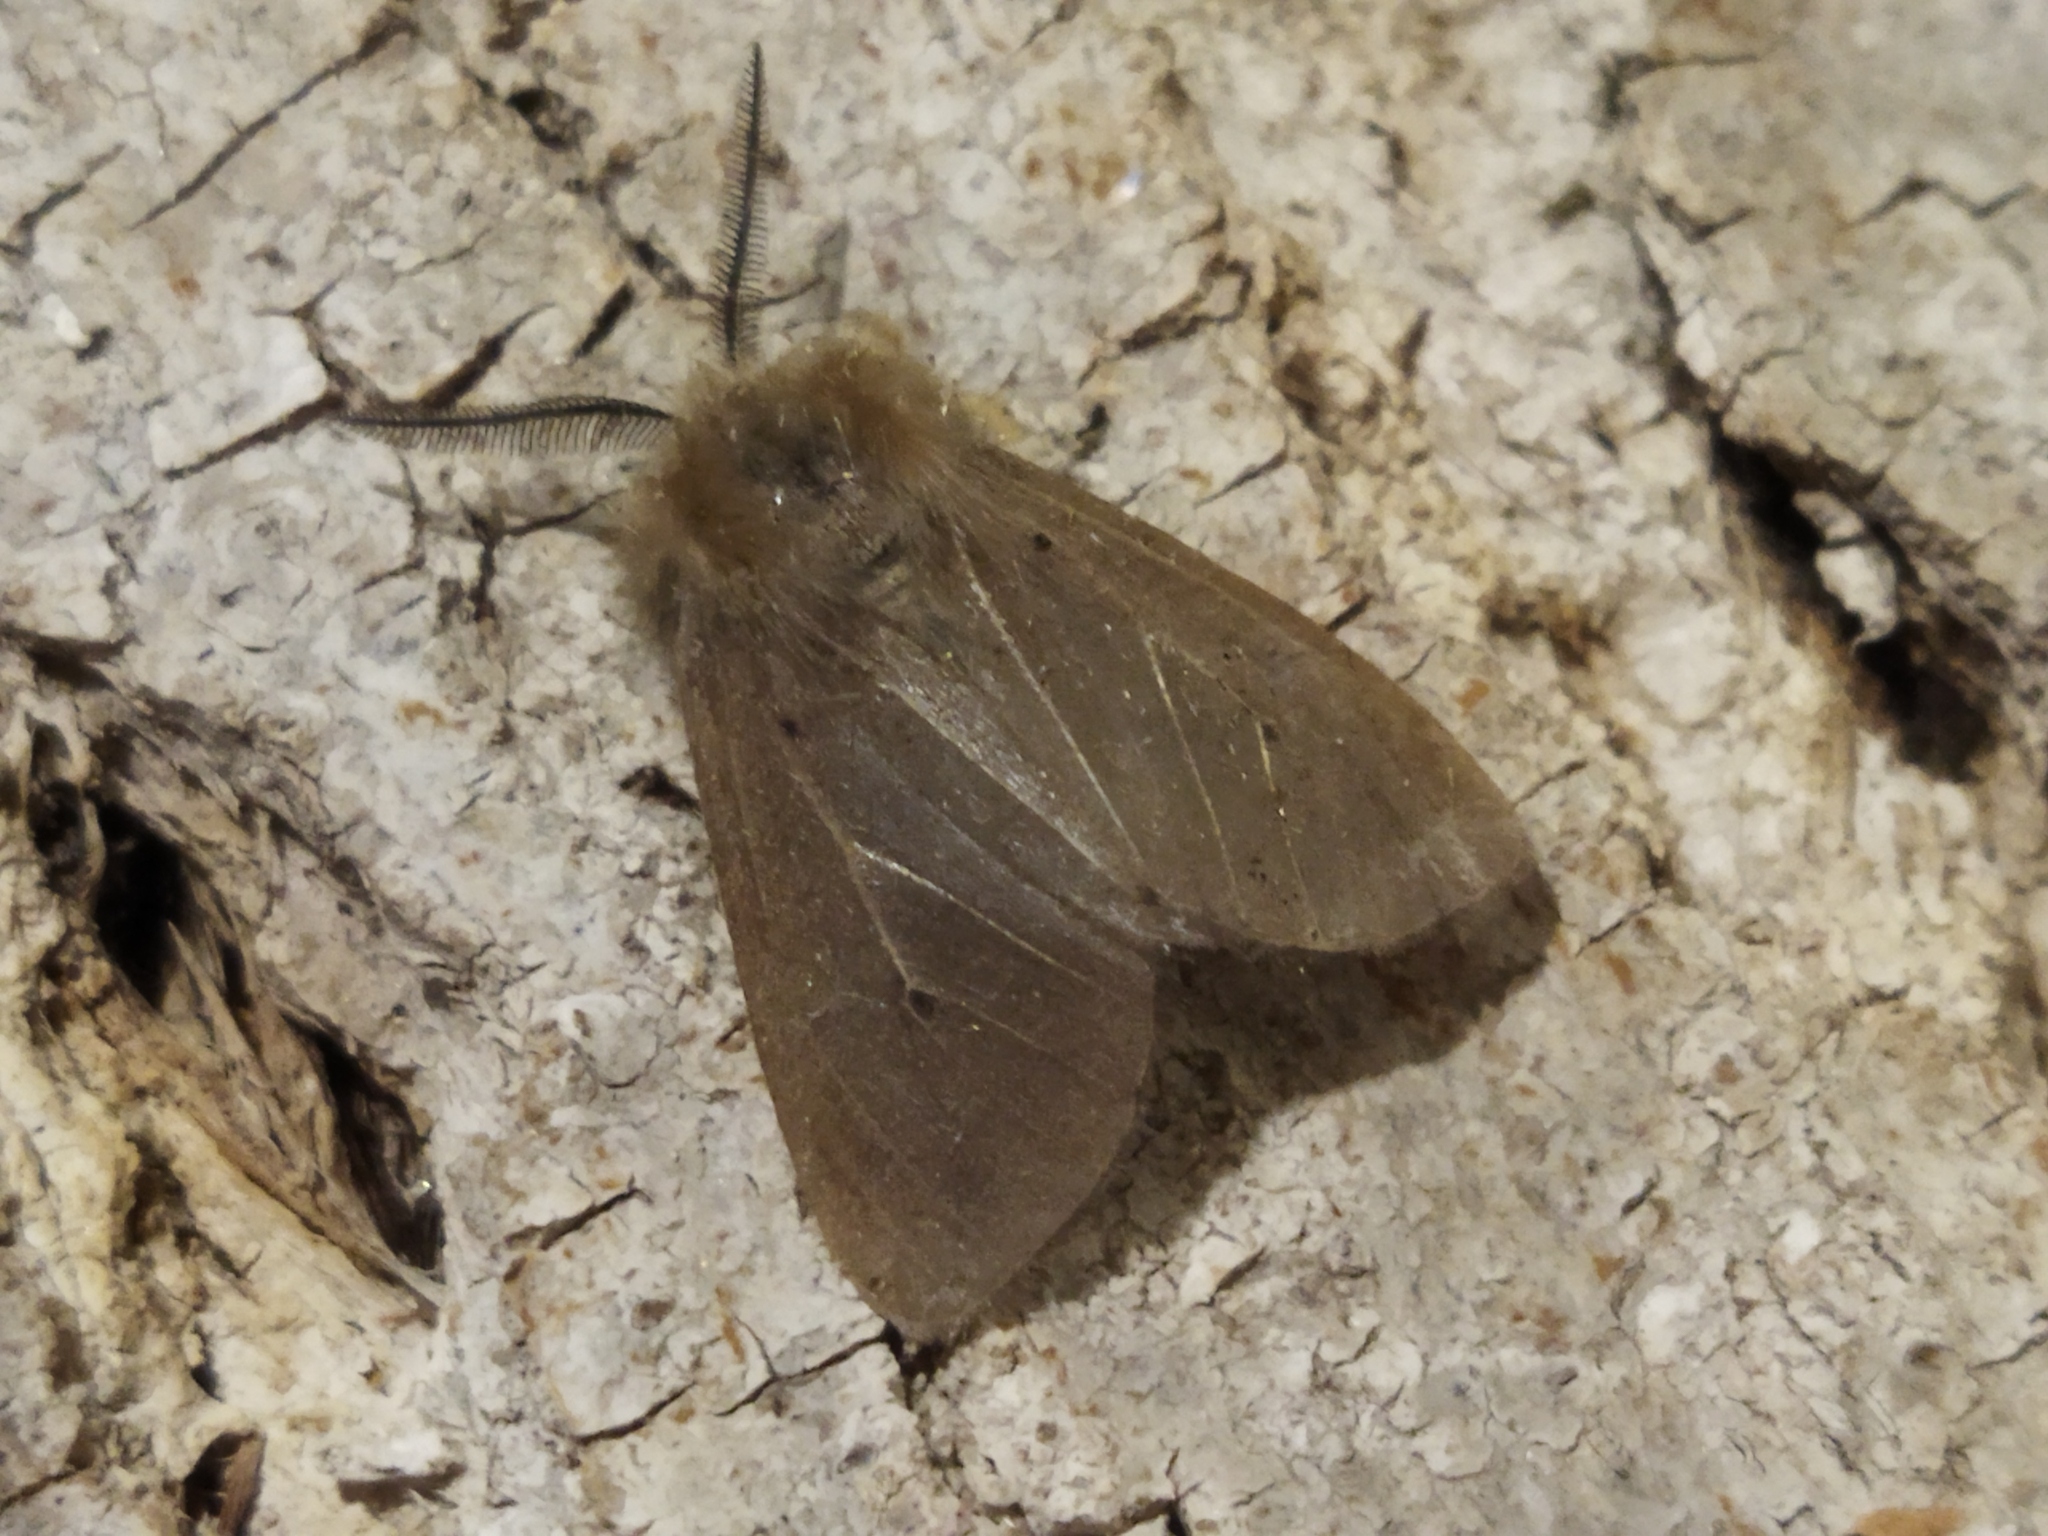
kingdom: Animalia
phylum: Arthropoda
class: Insecta
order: Lepidoptera
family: Erebidae
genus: Diaphora
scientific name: Diaphora mendica
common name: Muslin moth
